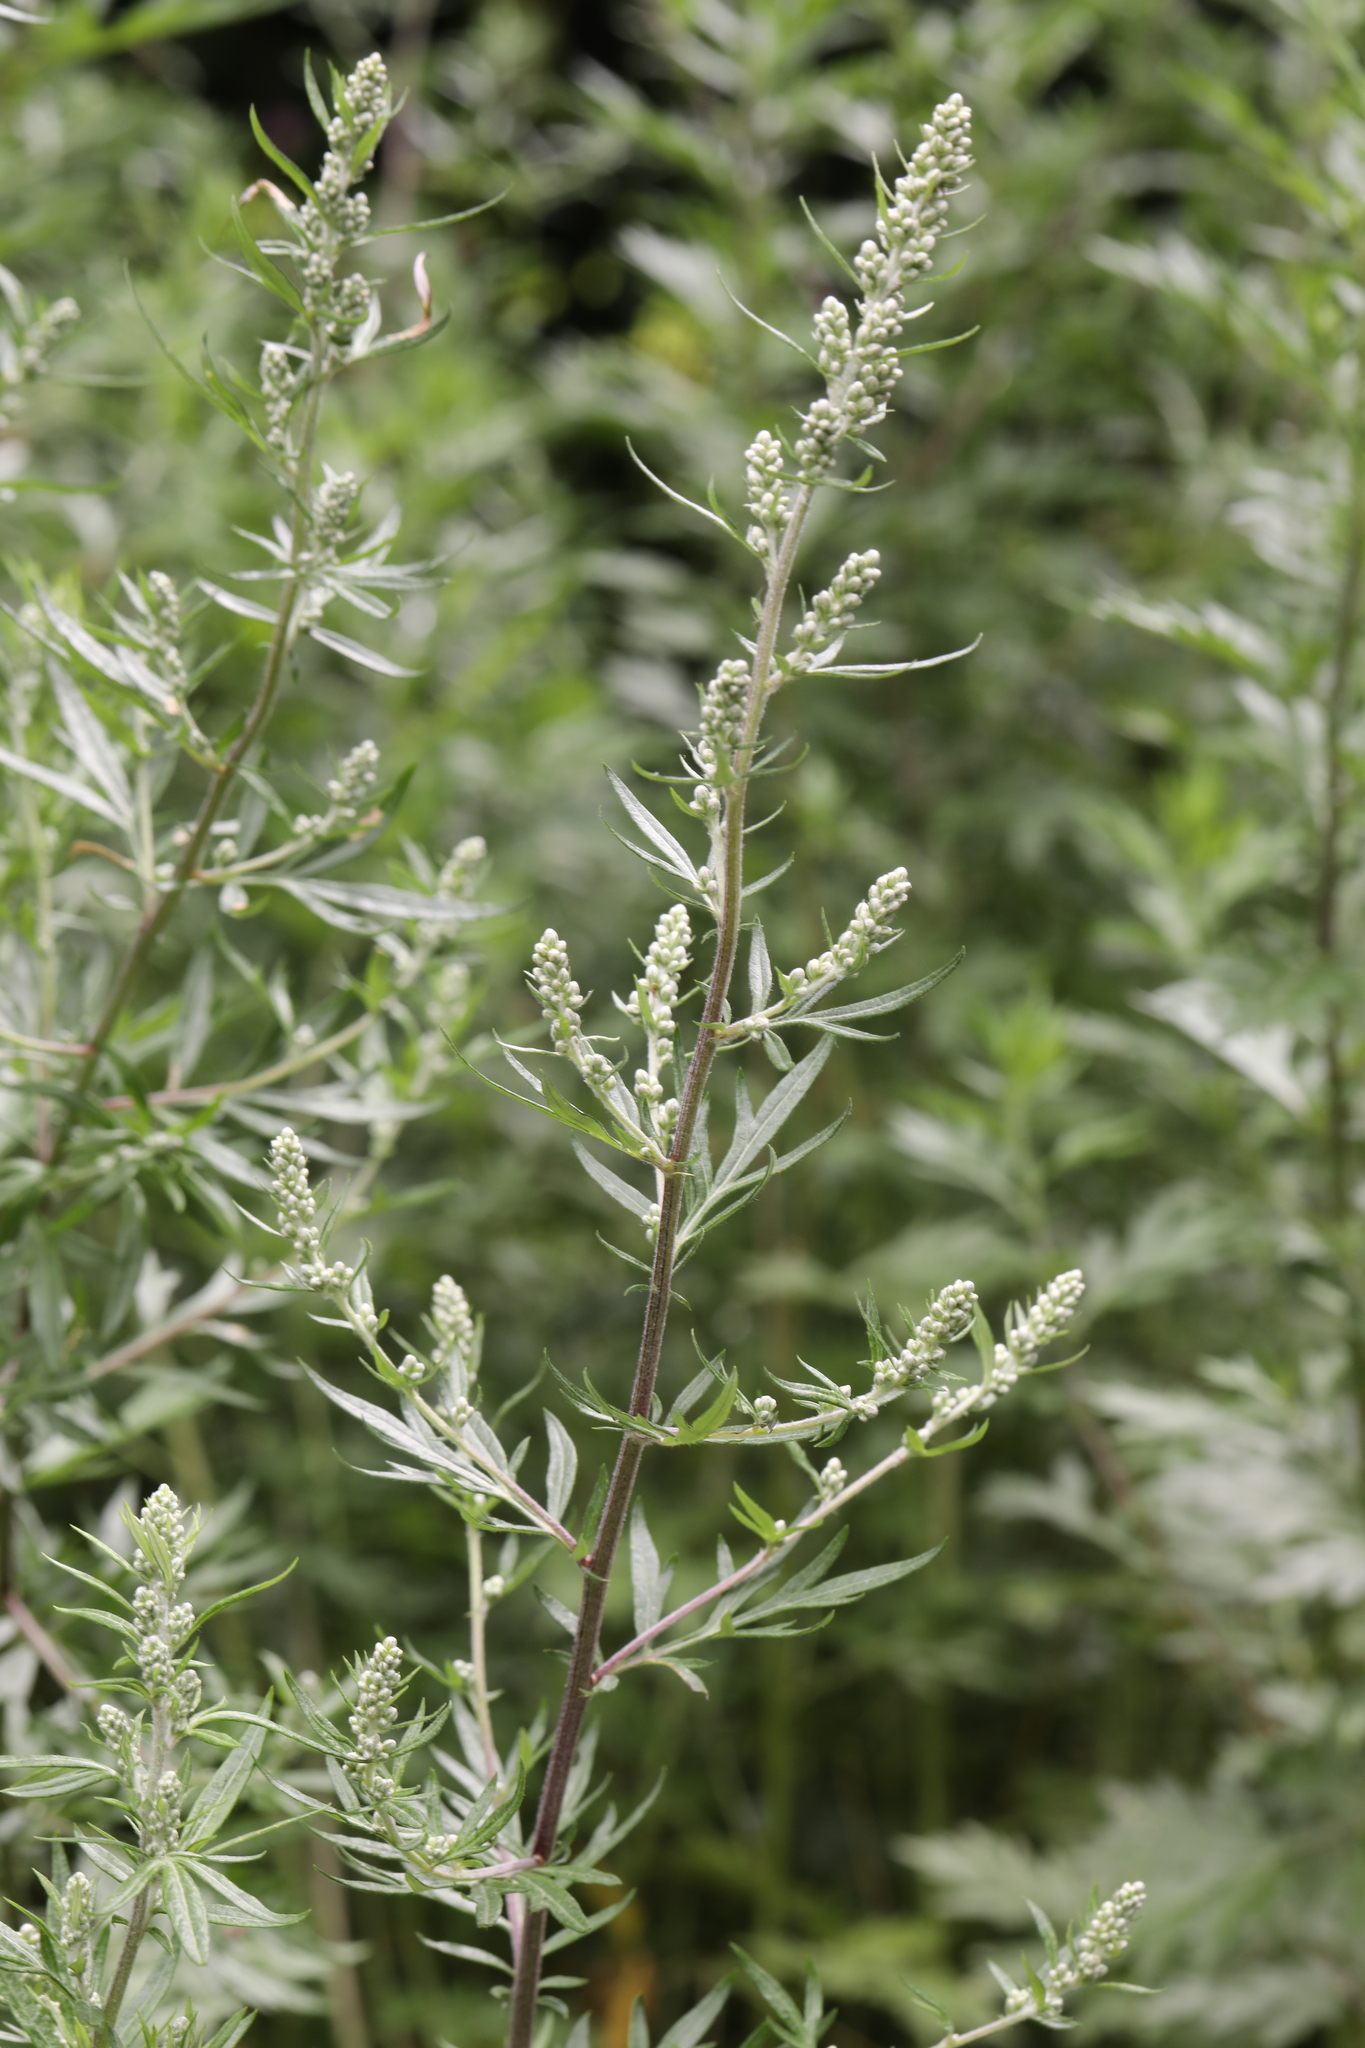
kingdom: Plantae
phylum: Tracheophyta
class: Magnoliopsida
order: Asterales
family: Asteraceae
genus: Artemisia
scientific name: Artemisia vulgaris
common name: Mugwort
